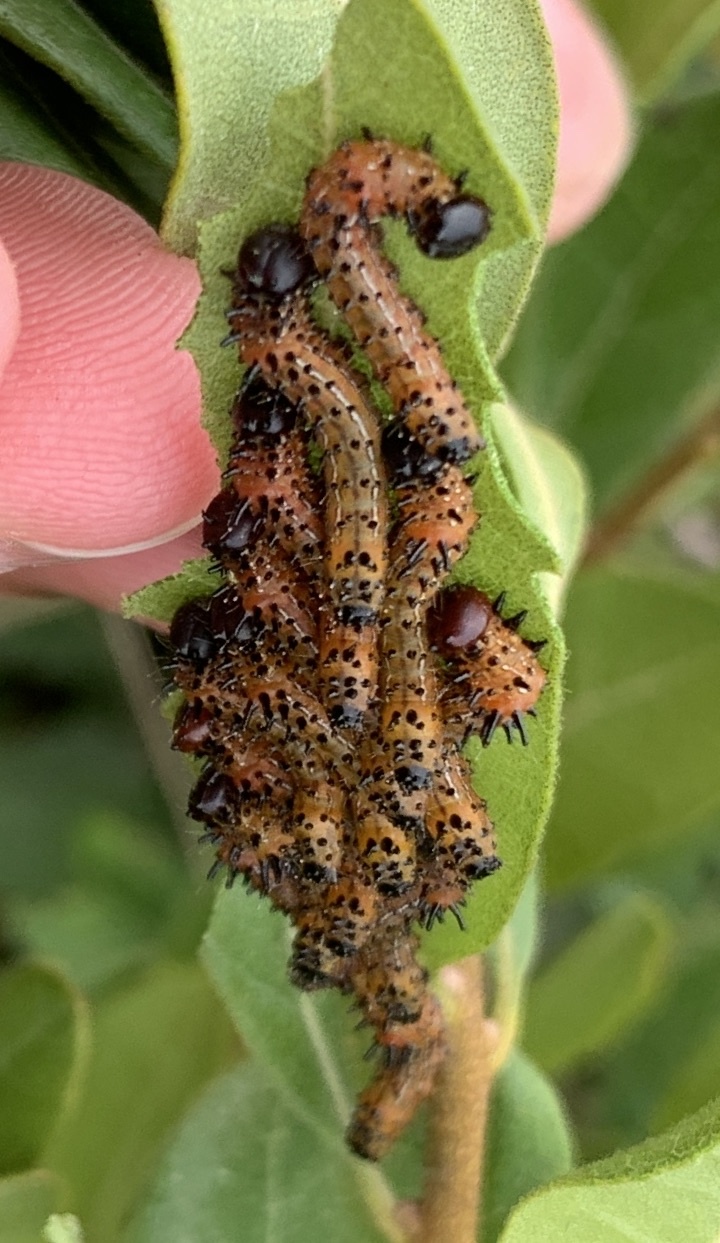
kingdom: Animalia
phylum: Arthropoda
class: Insecta
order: Lepidoptera
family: Notodontidae
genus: Schizura
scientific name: Schizura
